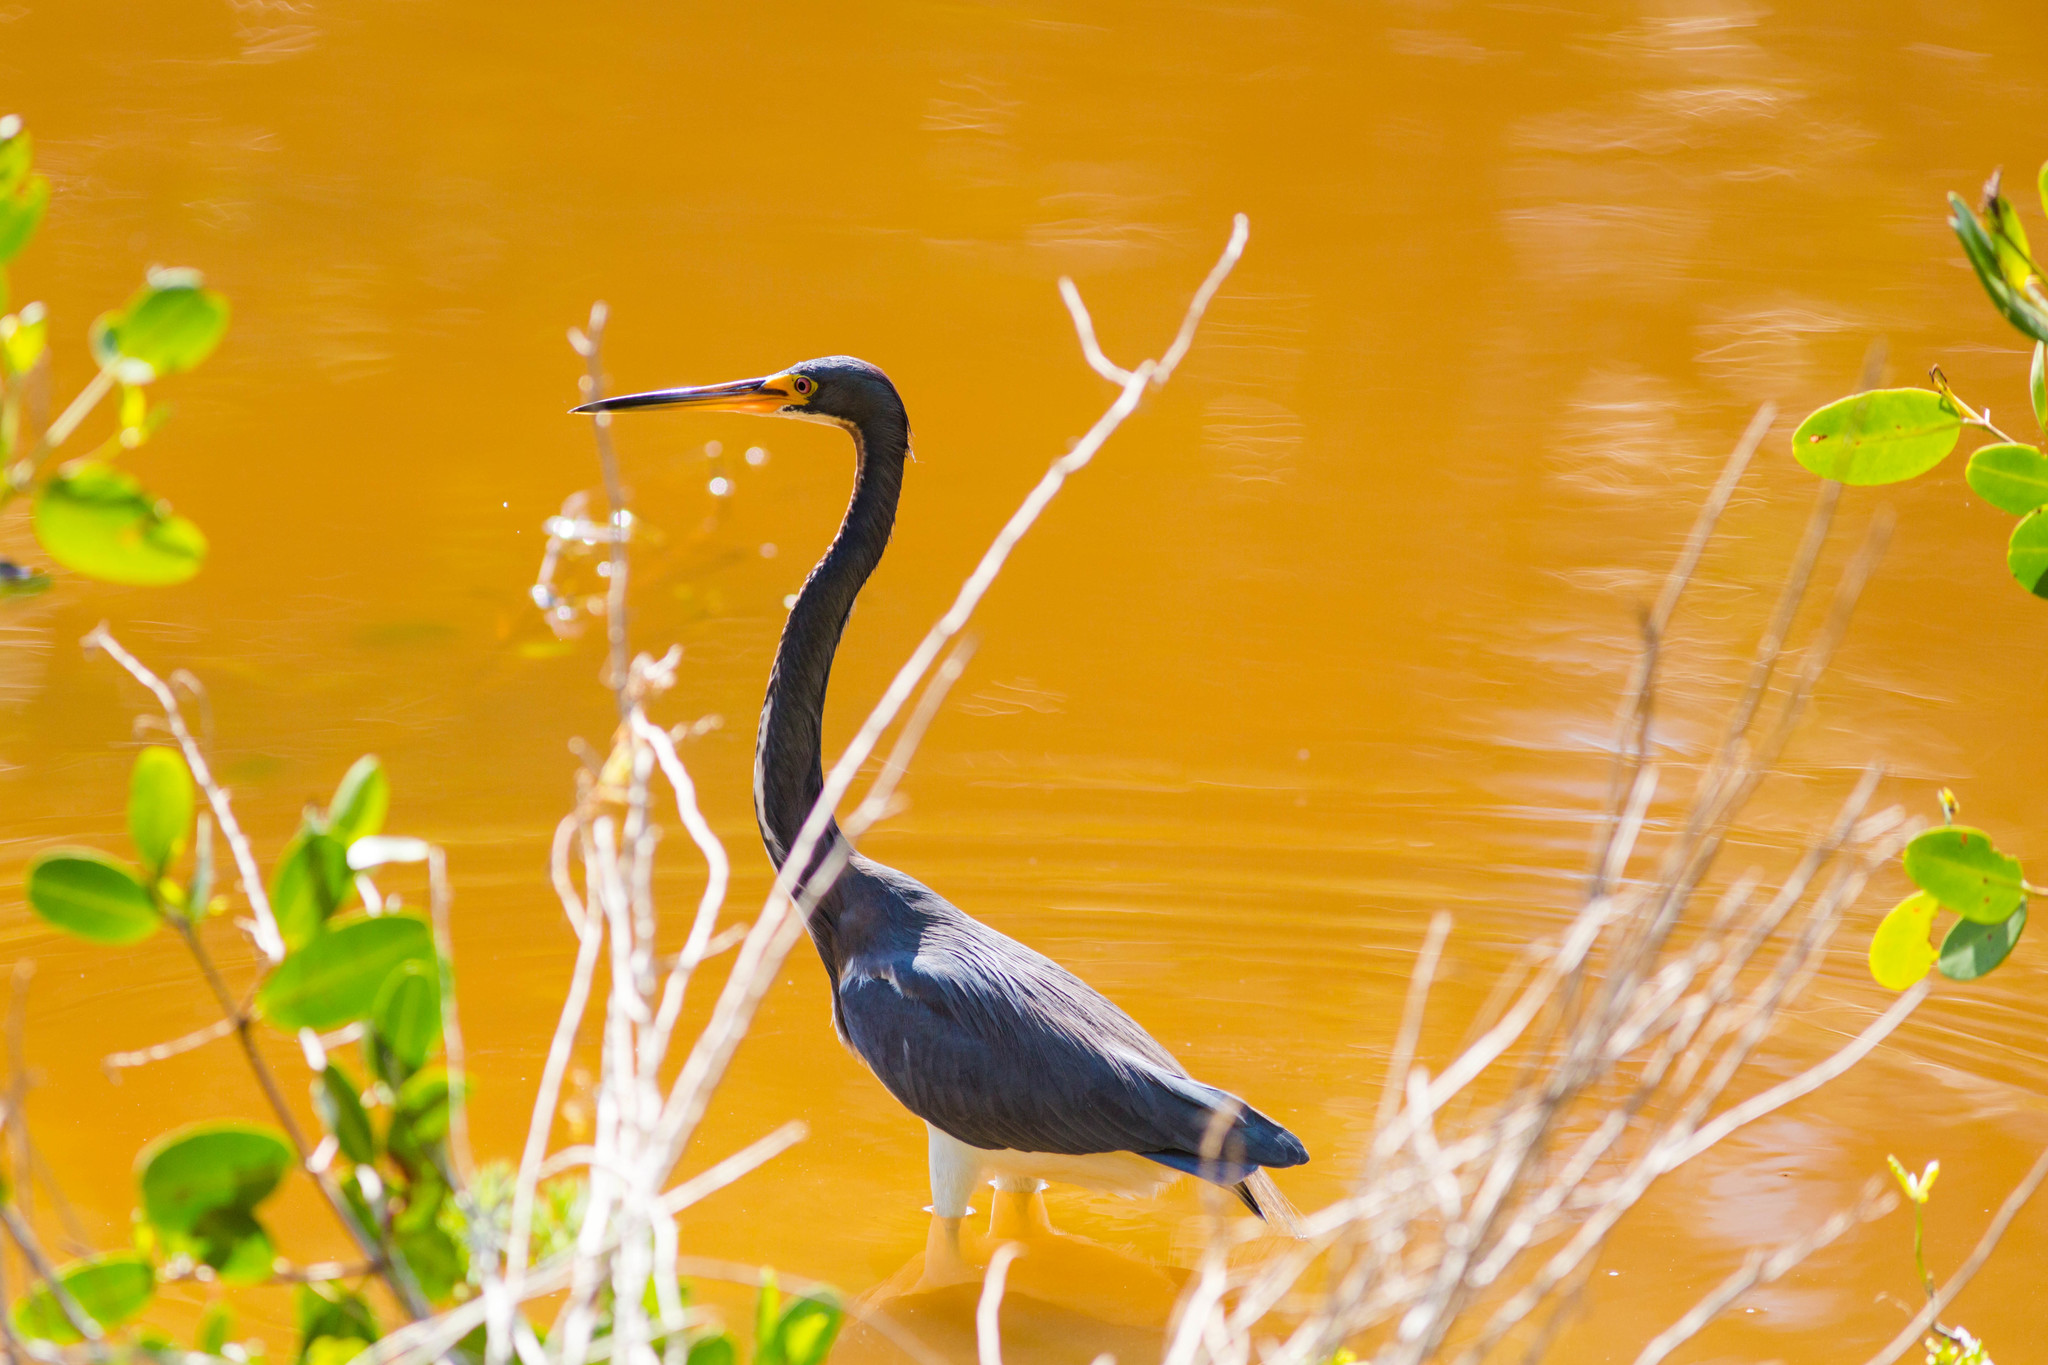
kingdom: Animalia
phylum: Chordata
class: Aves
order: Pelecaniformes
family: Ardeidae
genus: Egretta
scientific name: Egretta tricolor
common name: Tricolored heron
